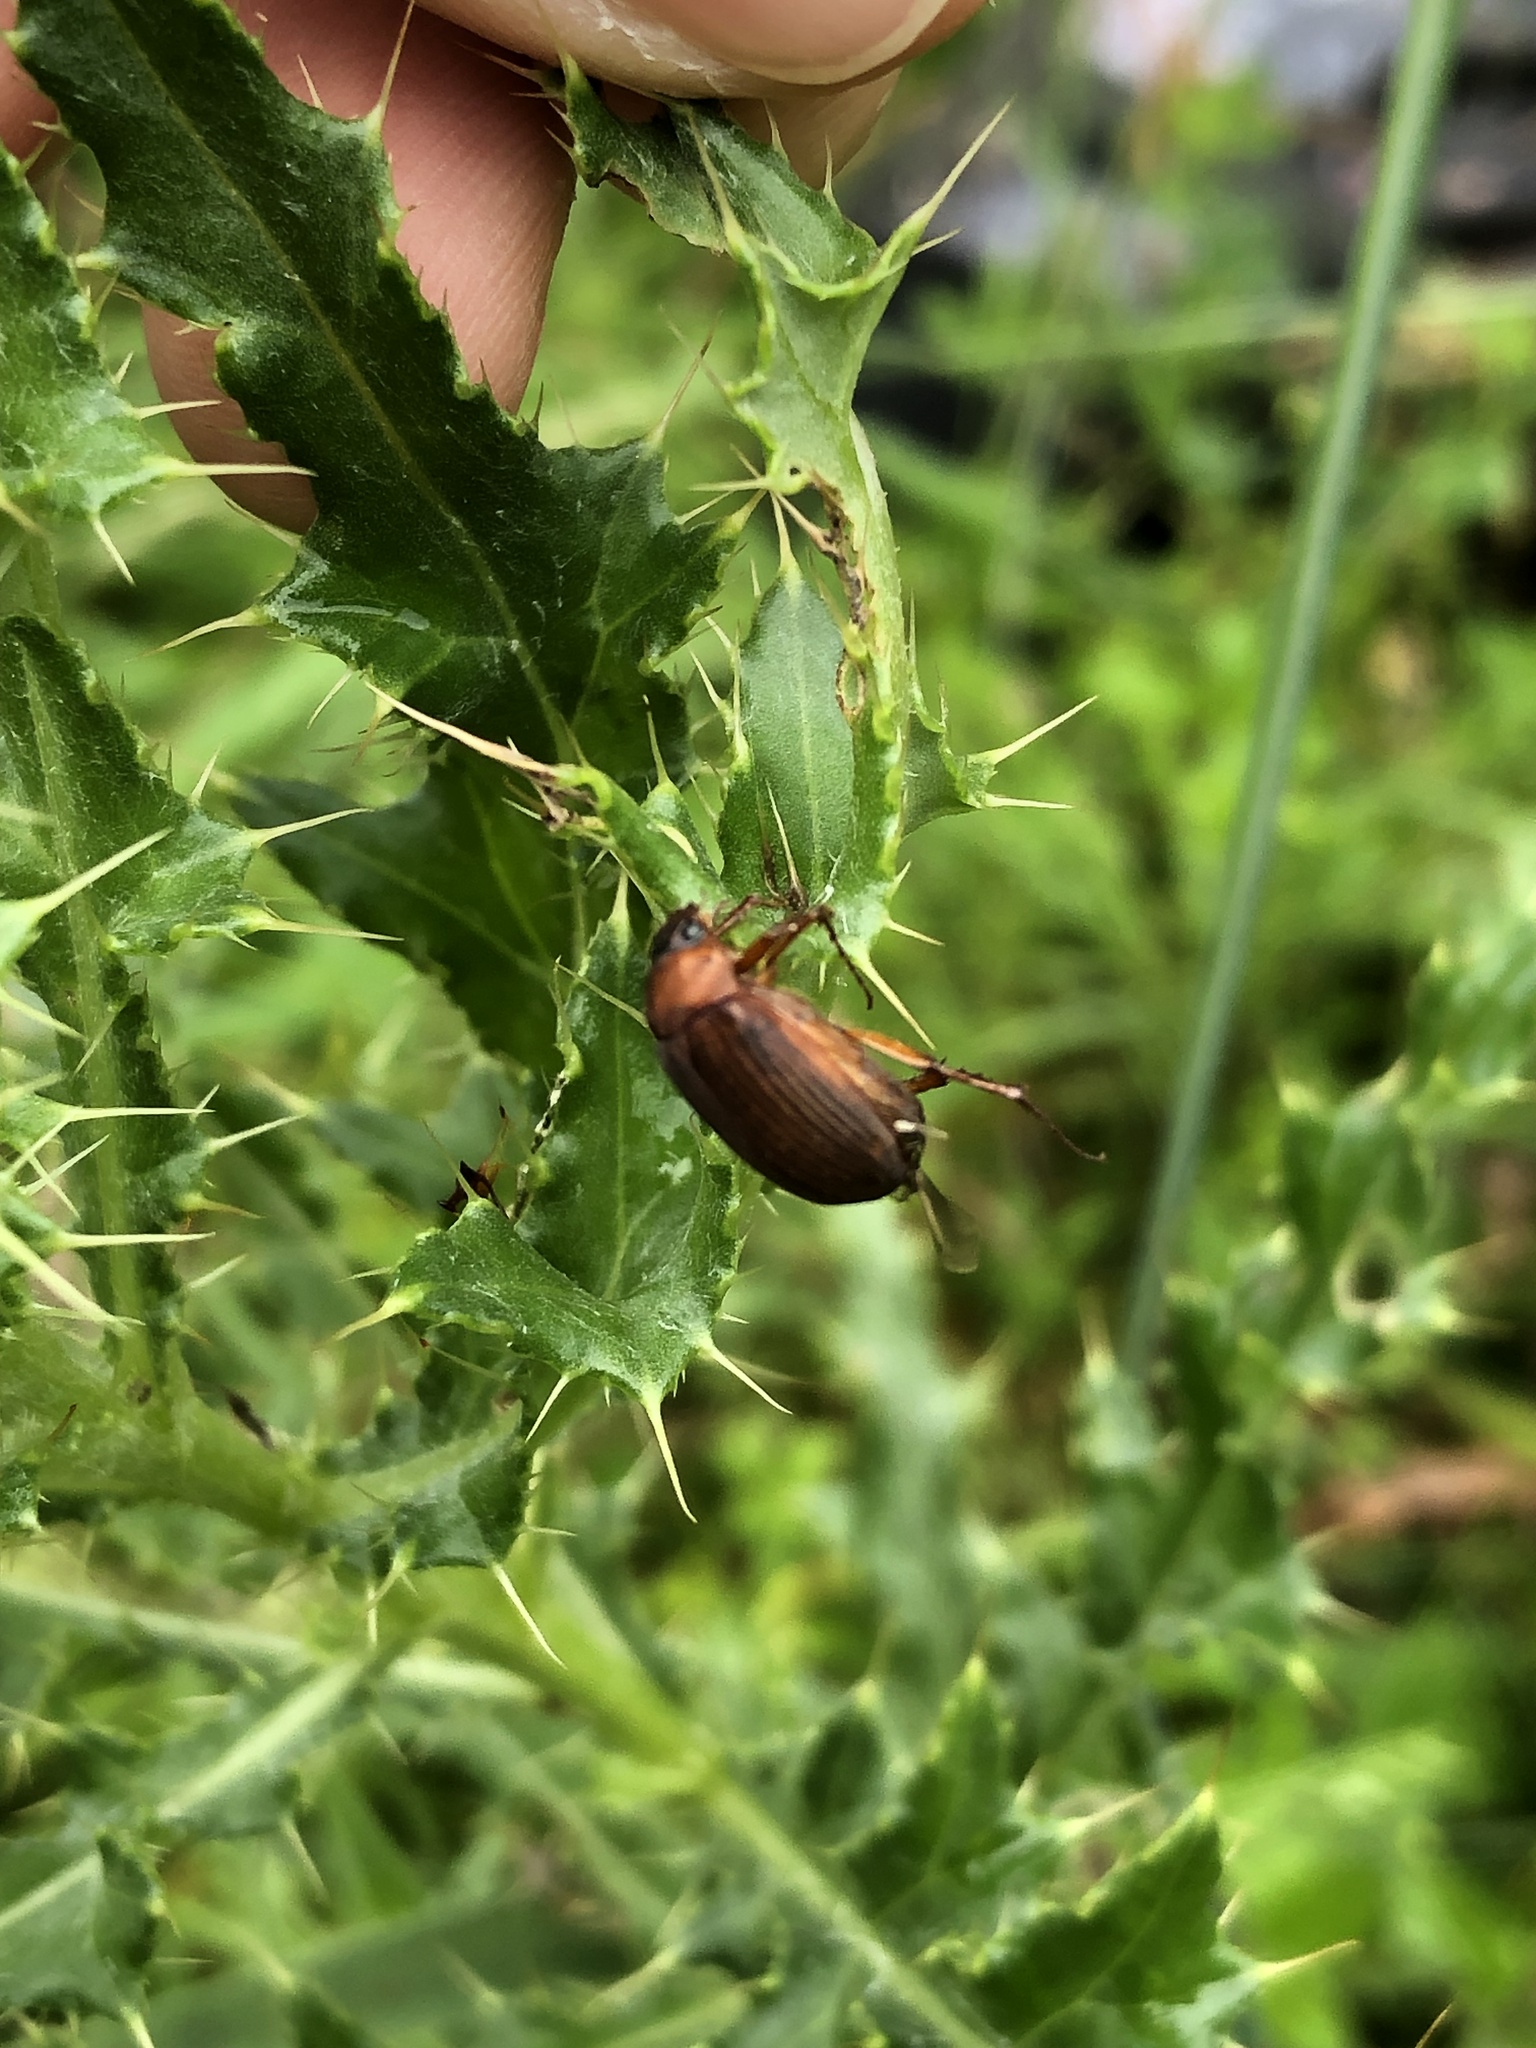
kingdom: Animalia
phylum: Arthropoda
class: Insecta
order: Coleoptera
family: Scarabaeidae
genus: Serica
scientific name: Serica brunnea
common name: Brown chafer
